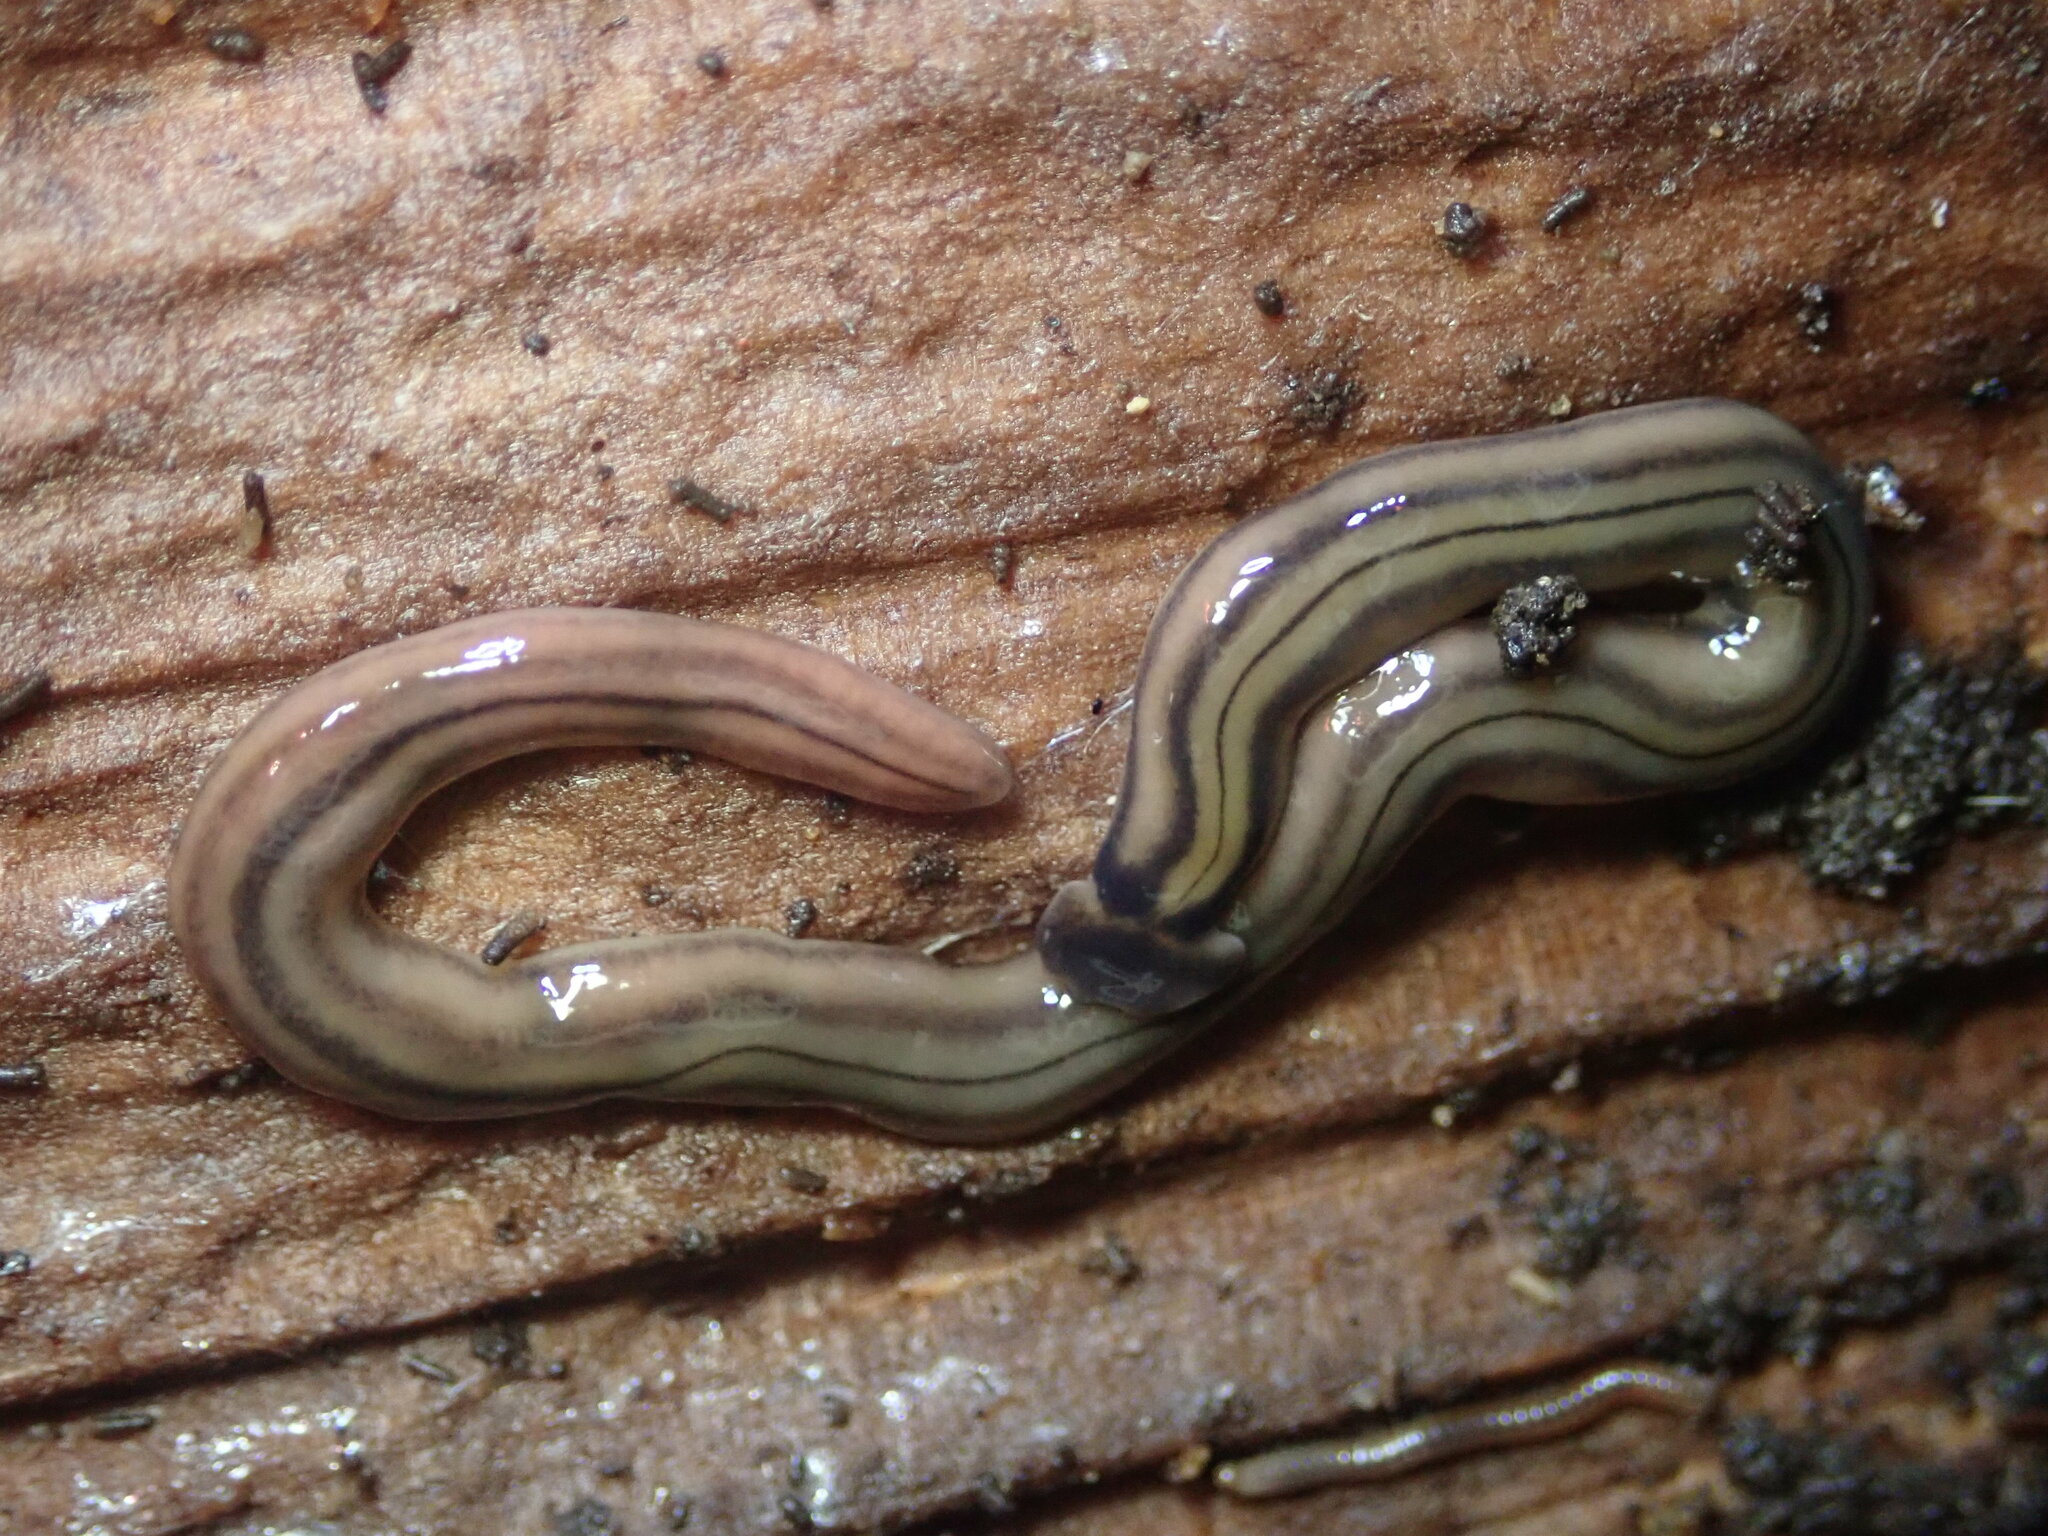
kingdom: Animalia
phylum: Platyhelminthes
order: Tricladida
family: Geoplanidae
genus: Bipalium
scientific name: Bipalium kewense
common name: Hammerhead flatworm
